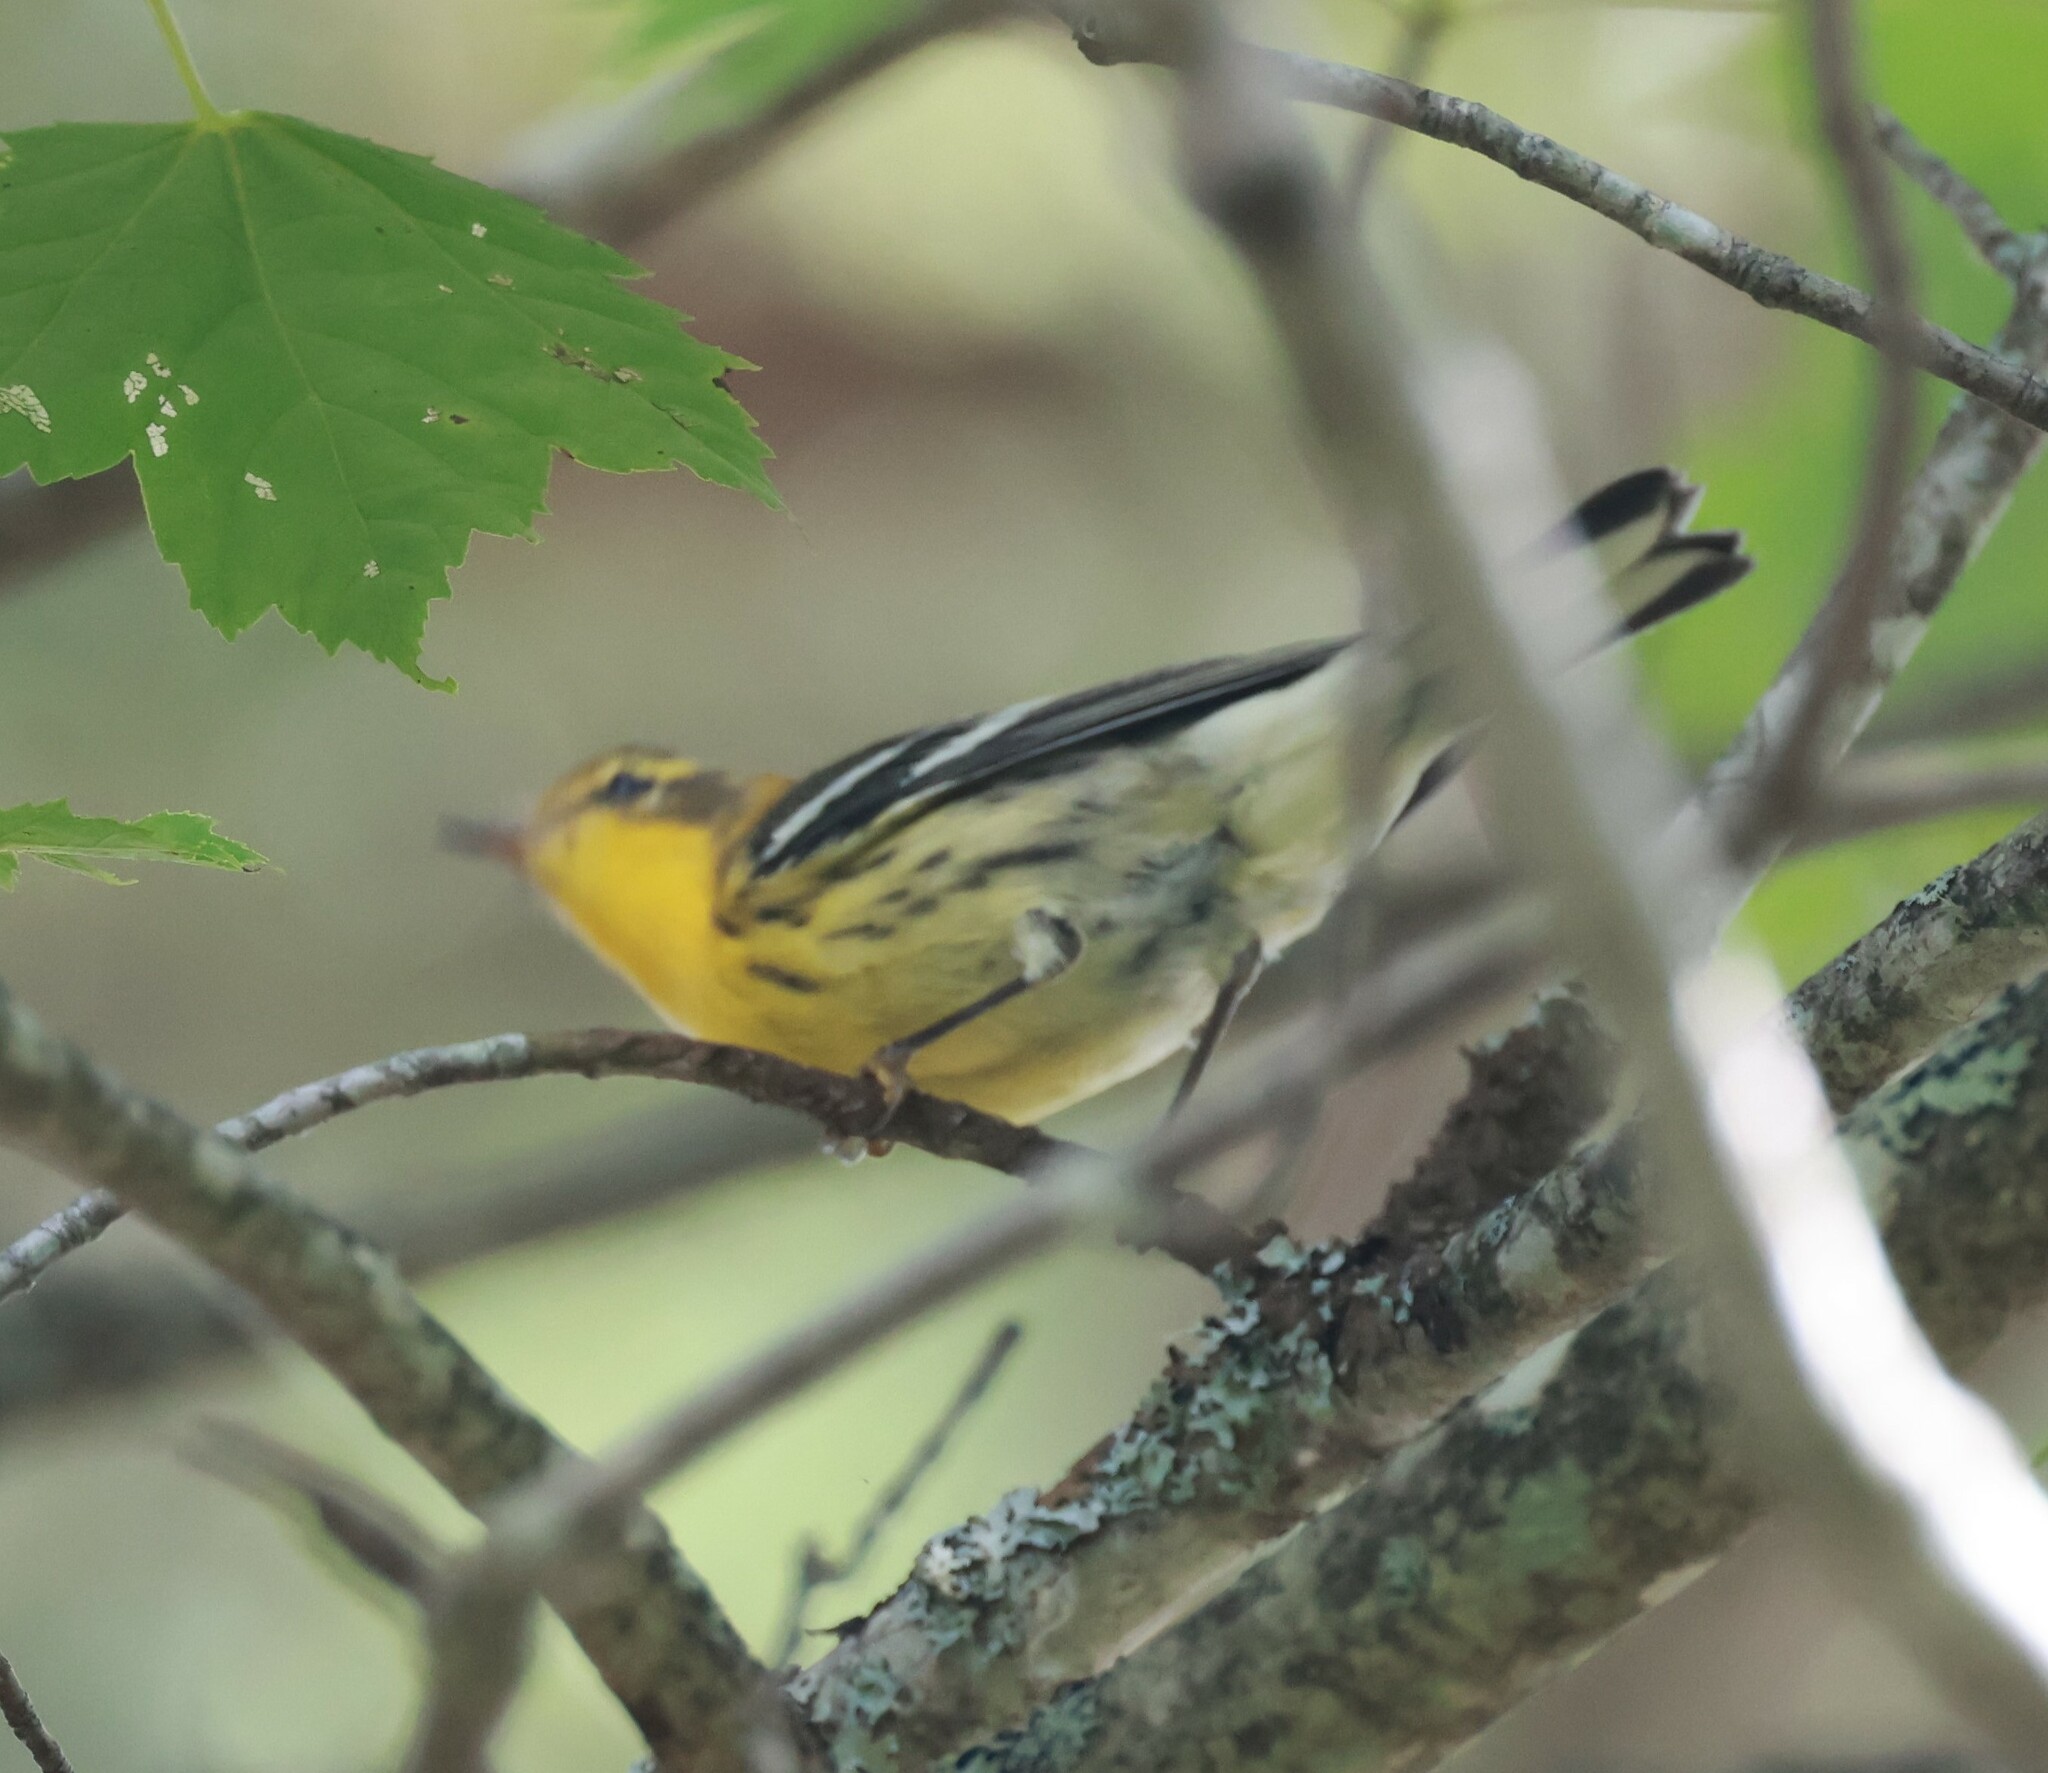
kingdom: Animalia
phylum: Chordata
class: Aves
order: Passeriformes
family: Parulidae
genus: Setophaga
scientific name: Setophaga fusca
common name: Blackburnian warbler
